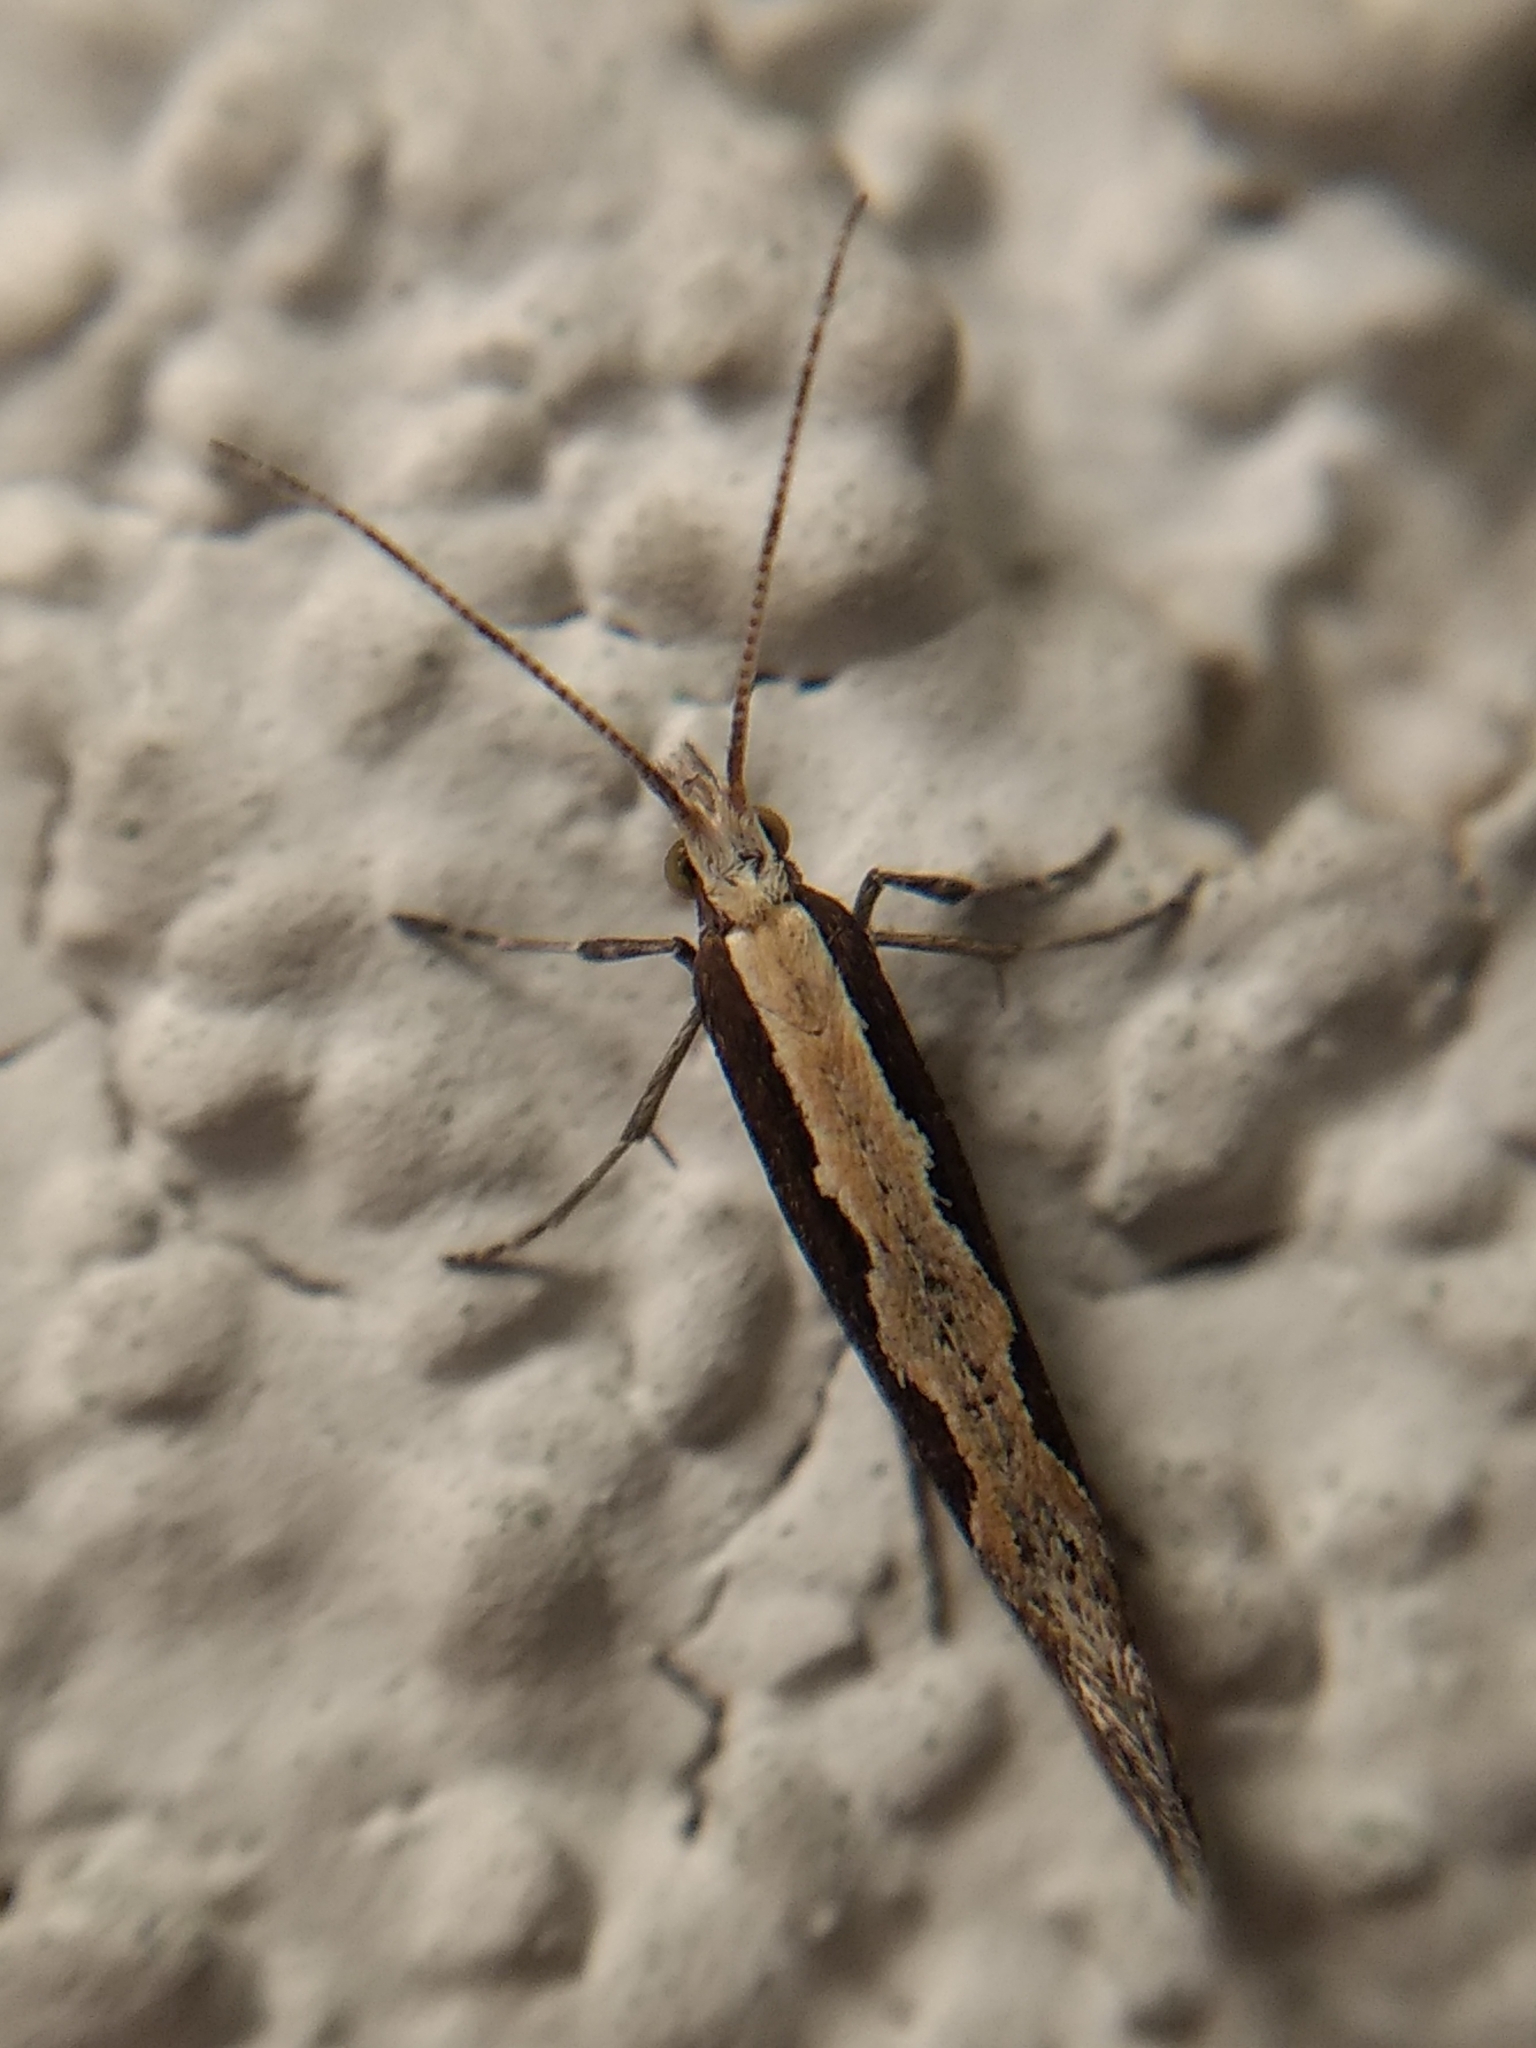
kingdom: Animalia
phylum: Arthropoda
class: Insecta
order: Lepidoptera
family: Plutellidae
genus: Plutella
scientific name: Plutella xylostella
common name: Diamond-back moth
